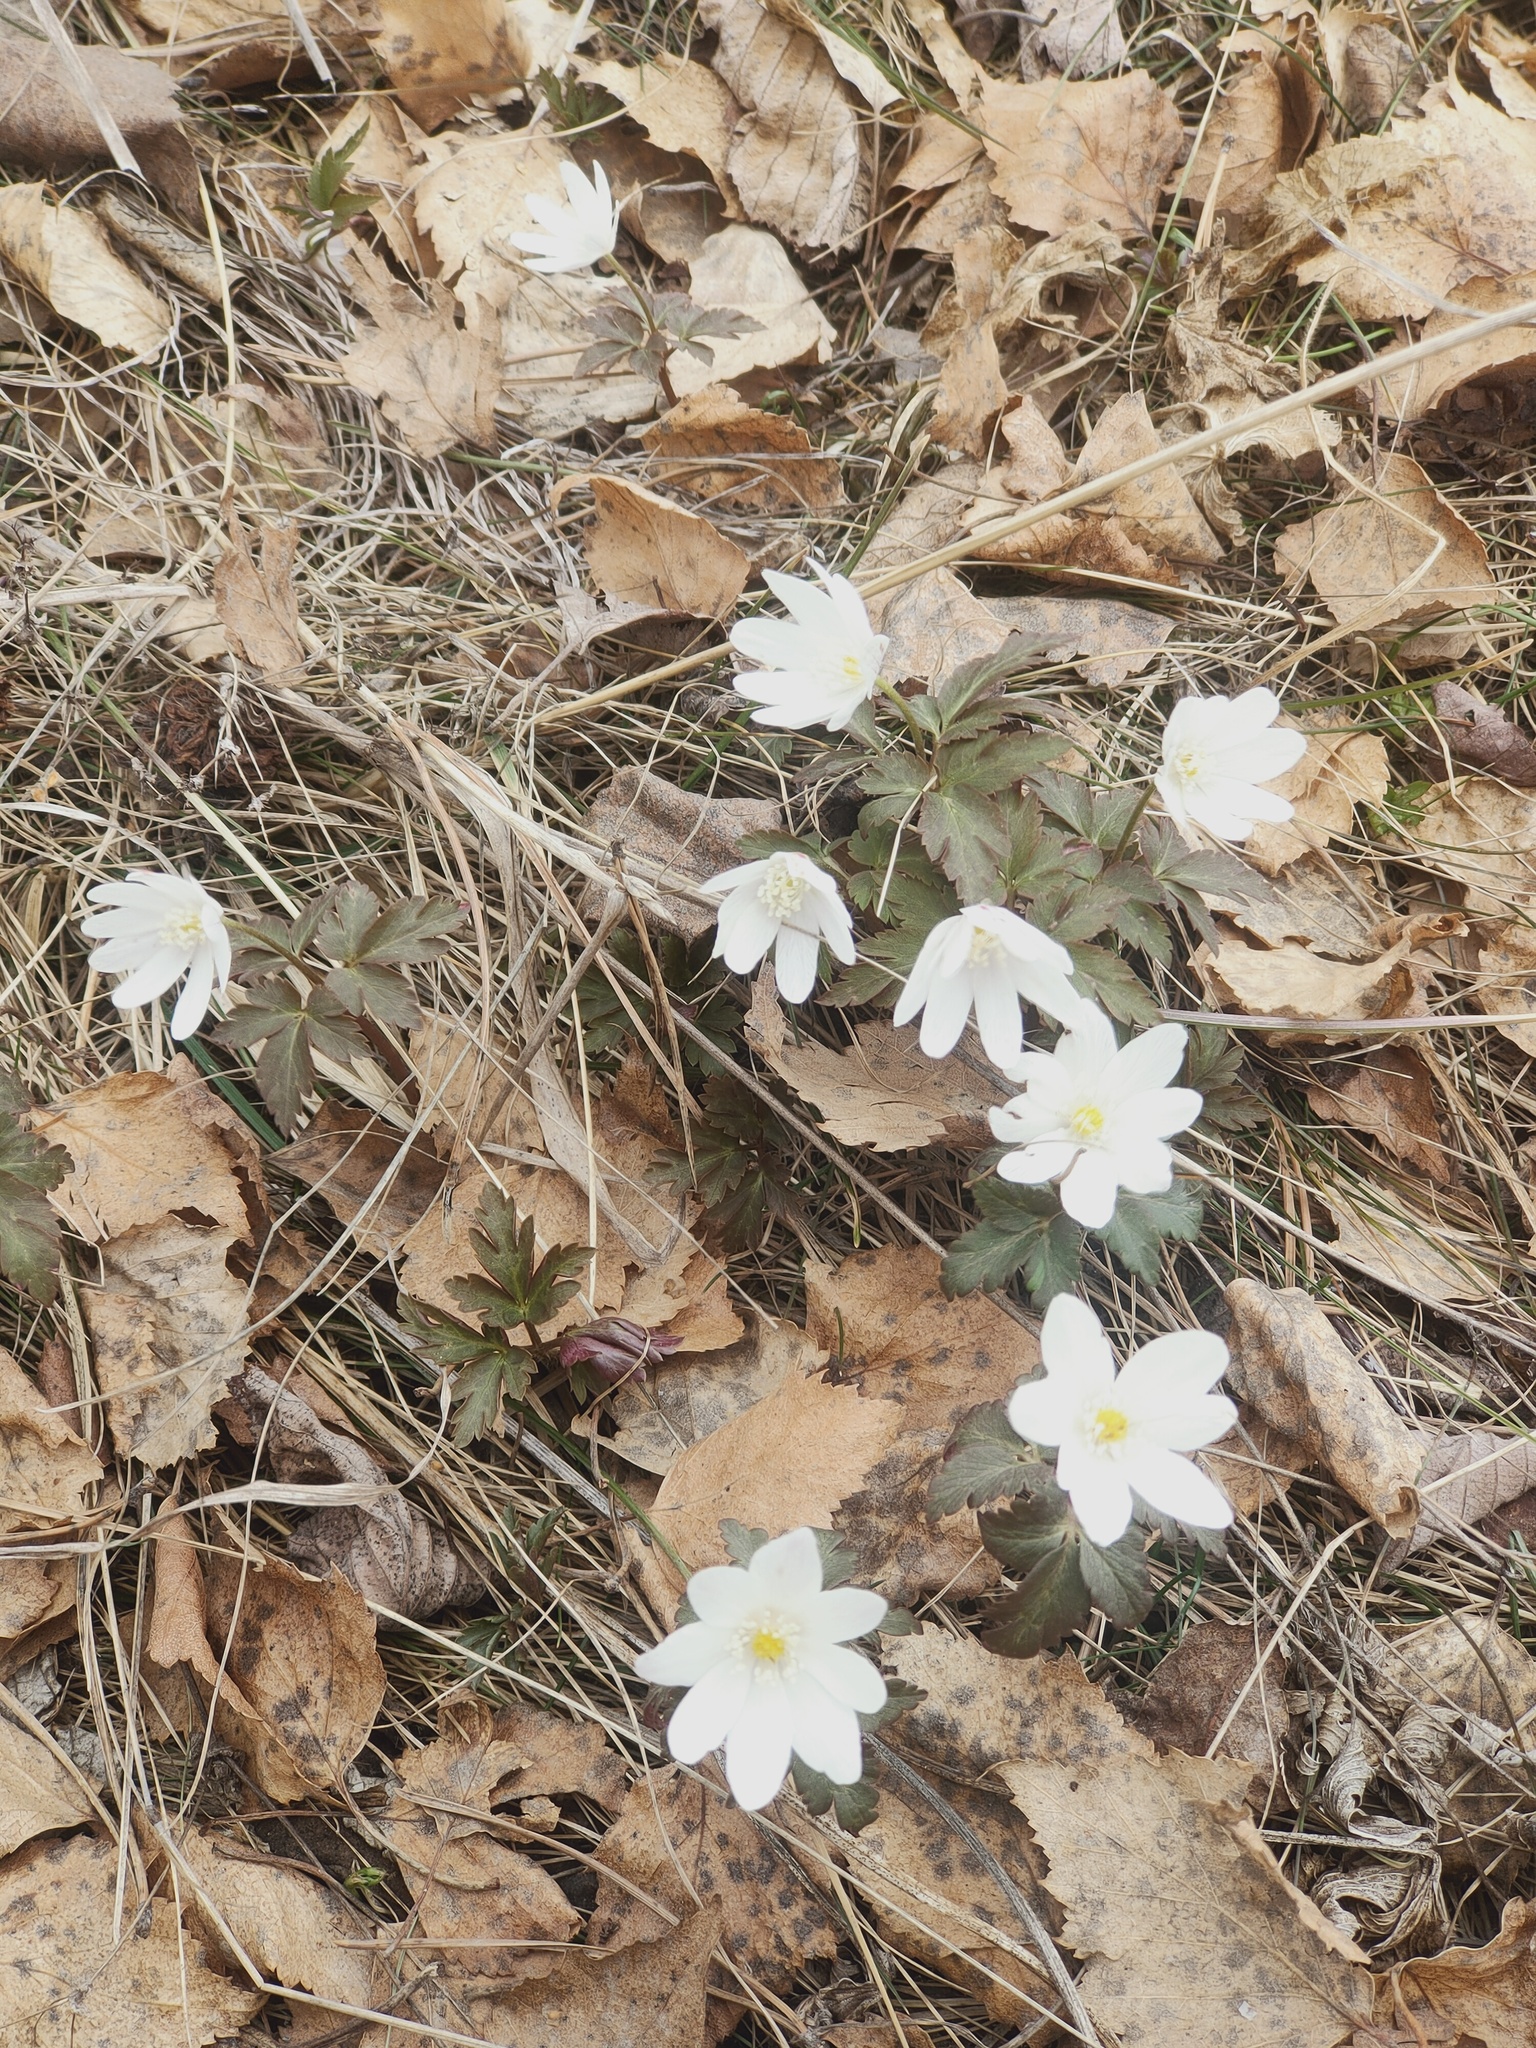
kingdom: Plantae
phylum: Tracheophyta
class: Magnoliopsida
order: Ranunculales
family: Ranunculaceae
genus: Anemone
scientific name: Anemone altaica
